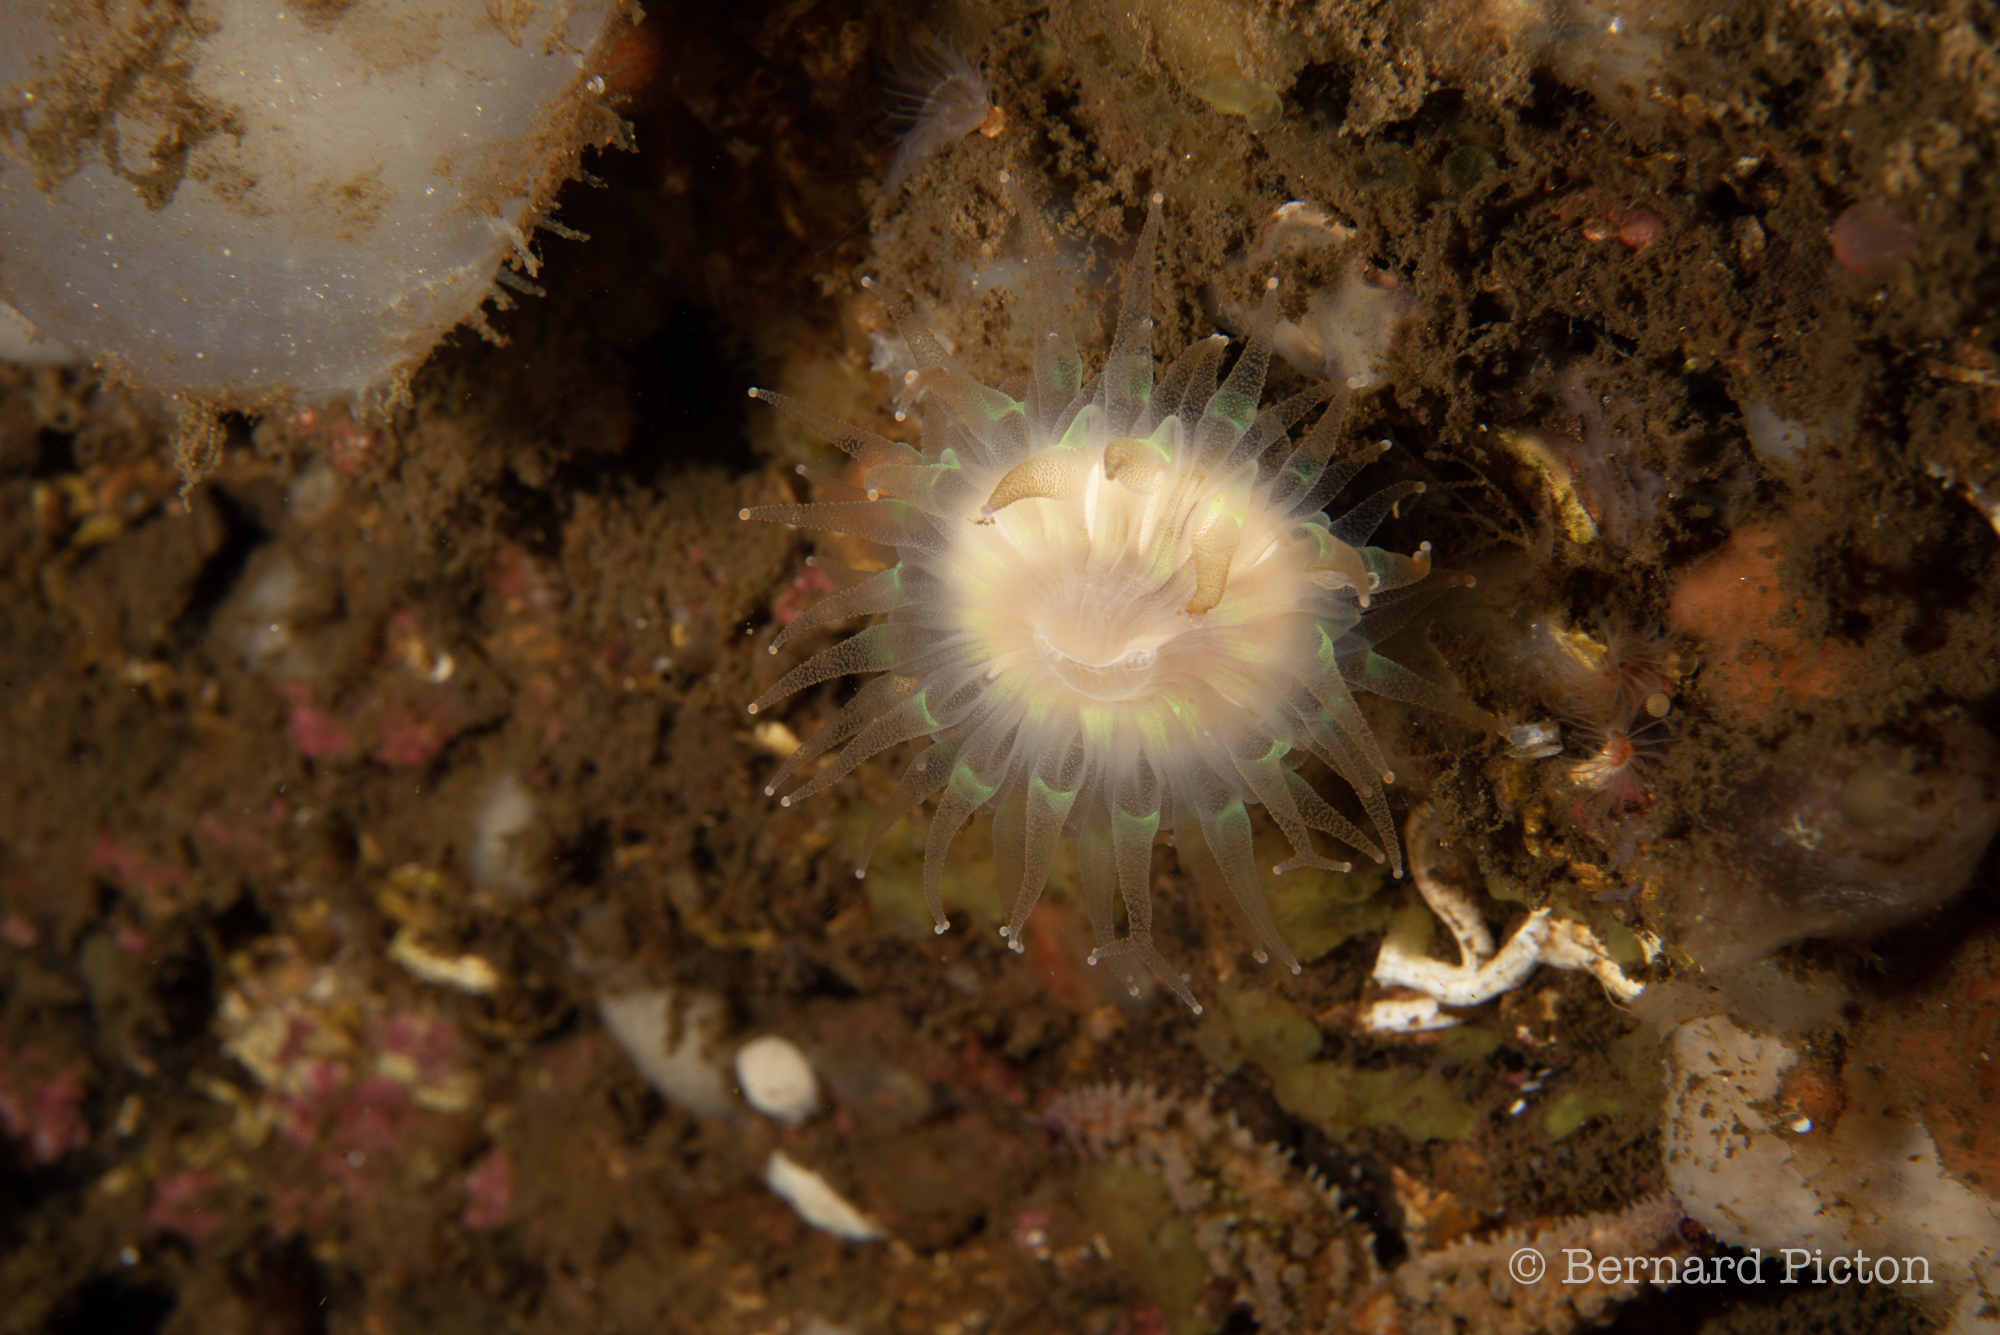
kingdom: Animalia
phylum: Cnidaria
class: Anthozoa
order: Scleractinia
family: Caryophylliidae
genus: Caryophyllia
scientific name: Caryophyllia smithii
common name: Devonshire cup coral
